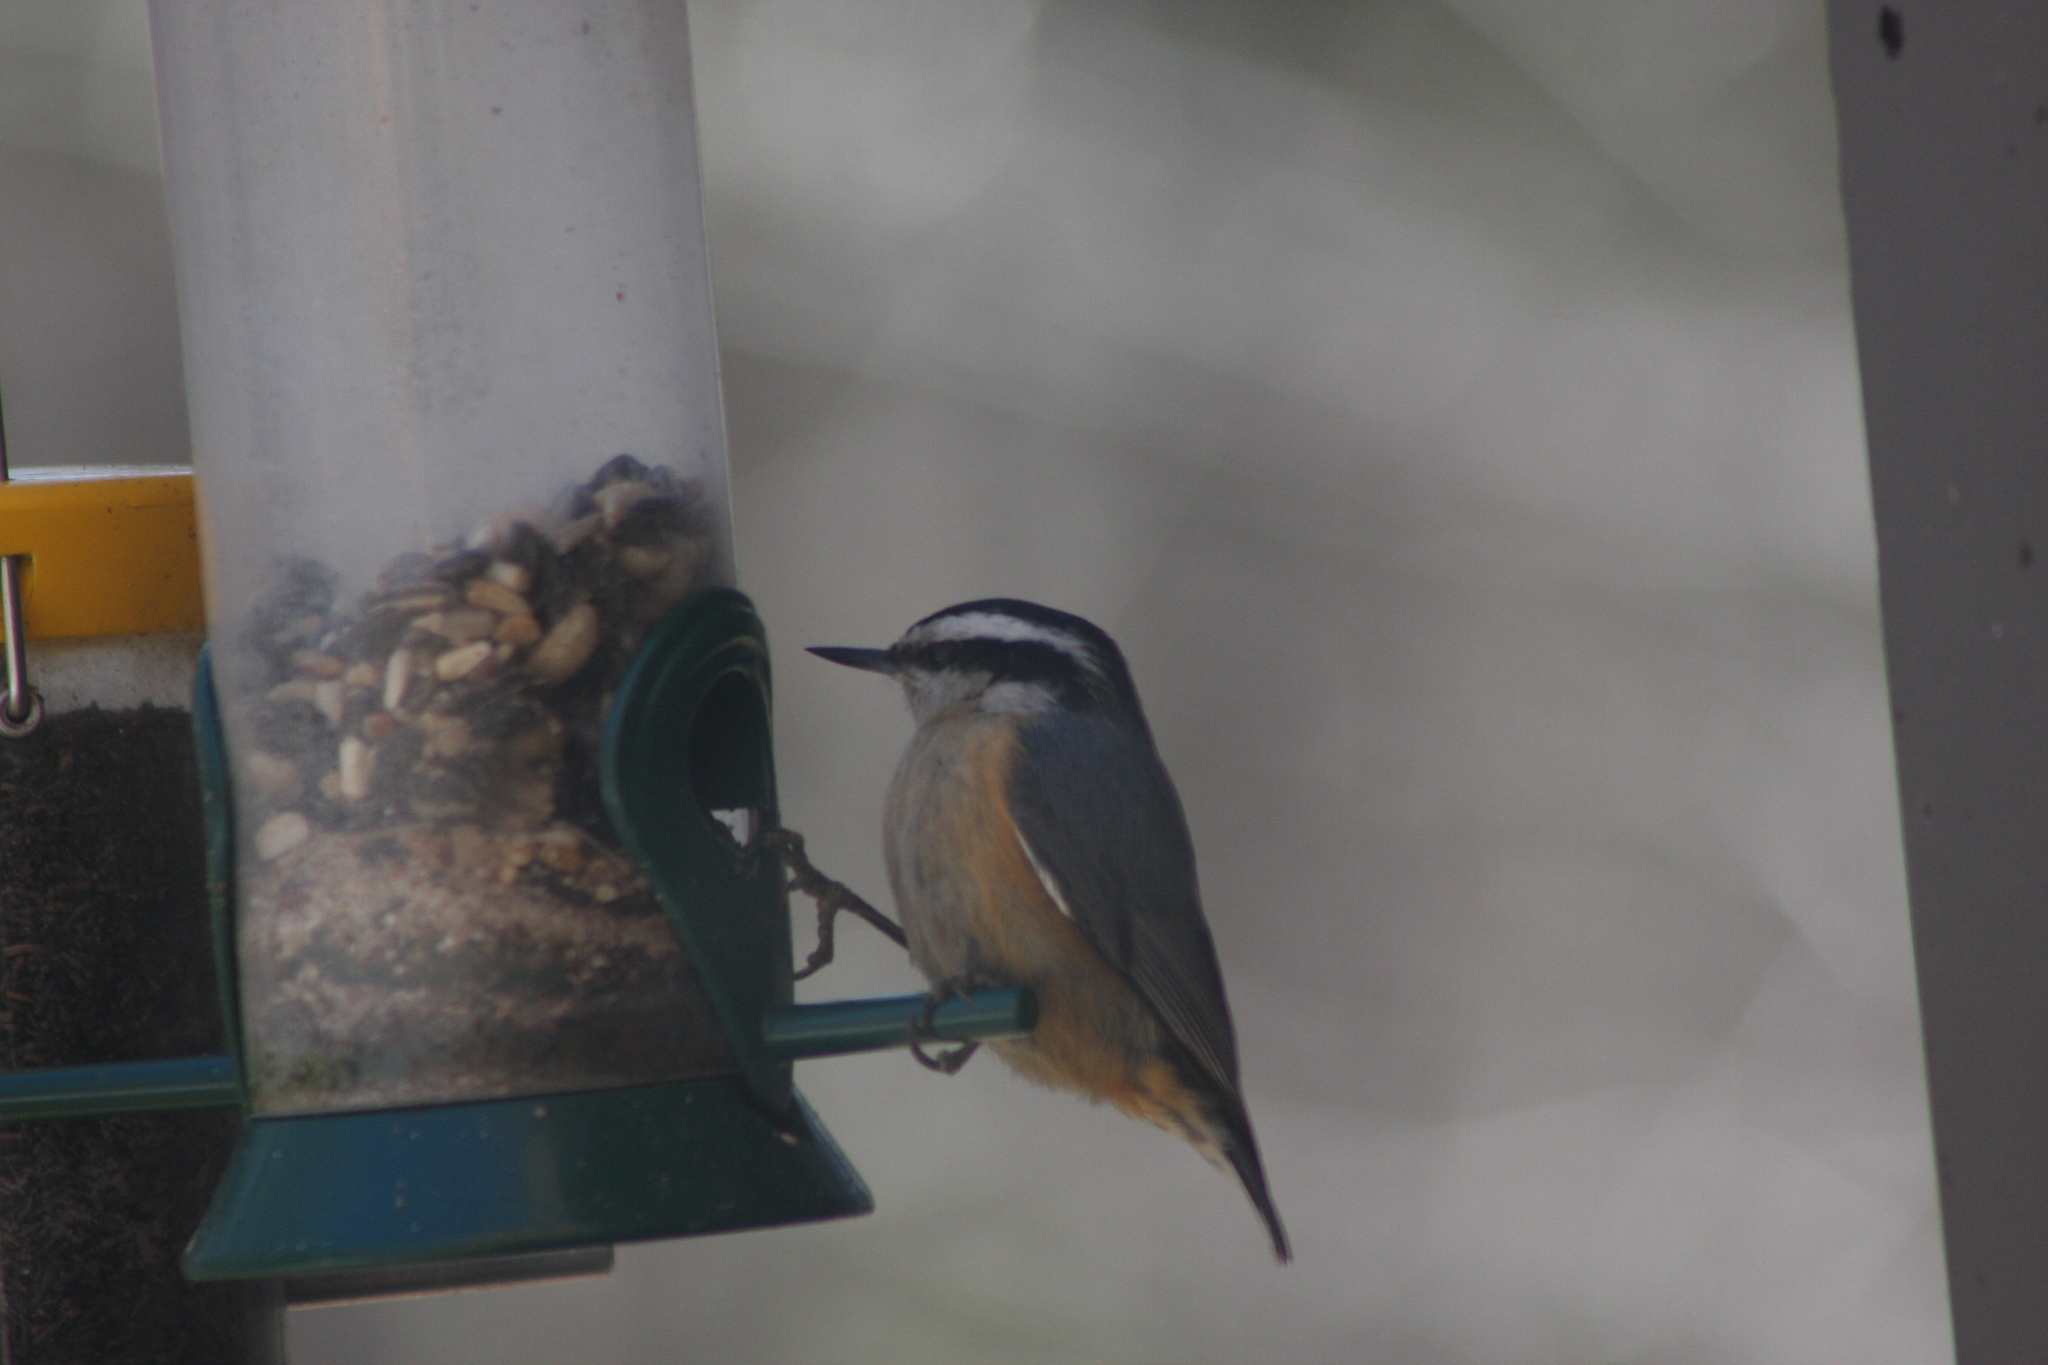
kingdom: Animalia
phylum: Chordata
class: Aves
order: Passeriformes
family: Sittidae
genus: Sitta
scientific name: Sitta canadensis
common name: Red-breasted nuthatch
